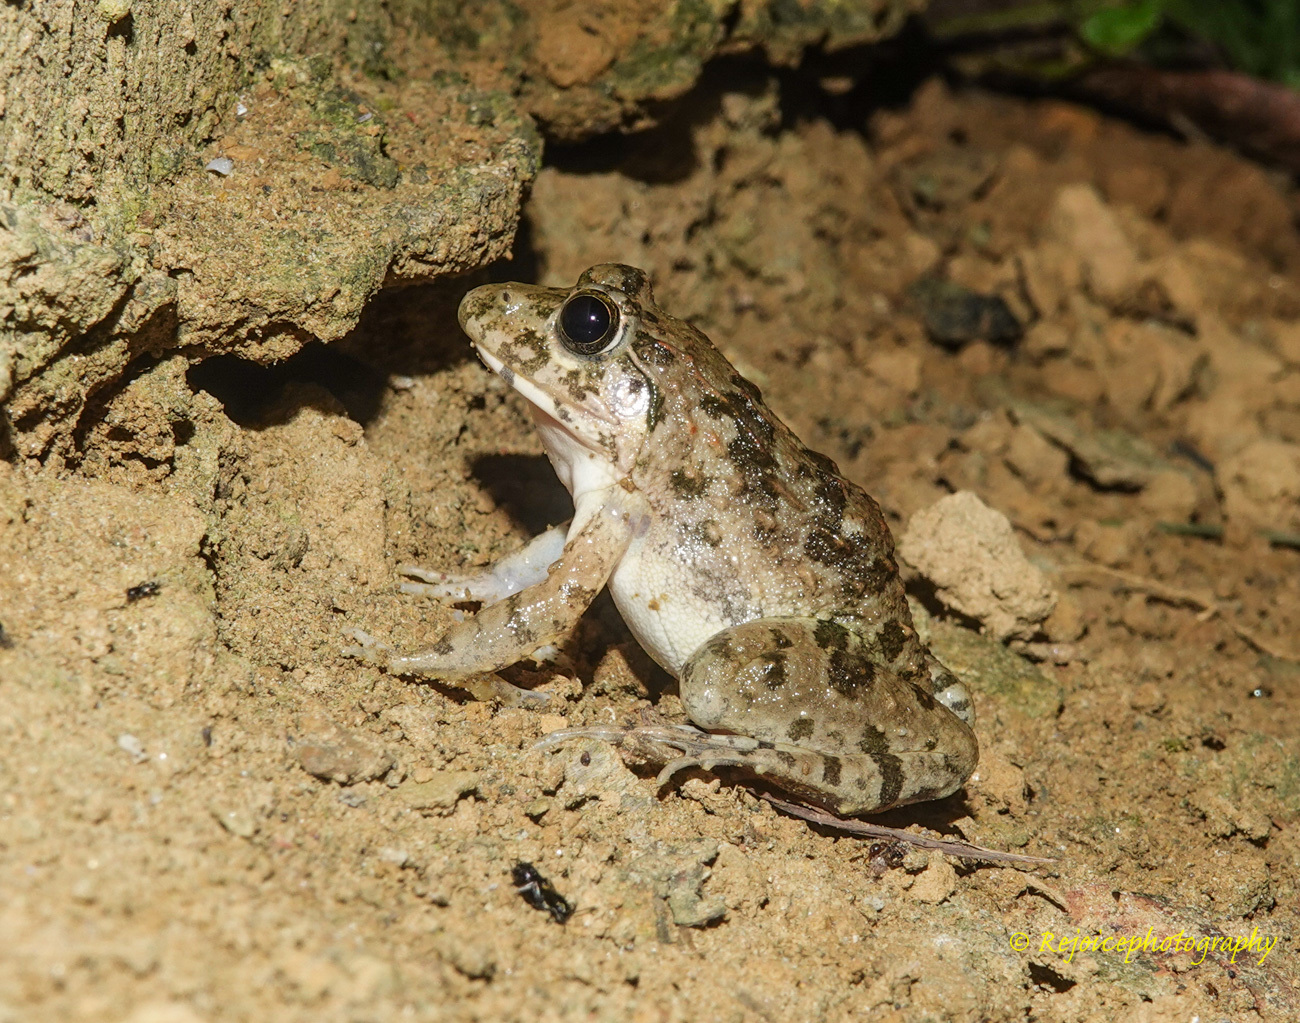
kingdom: Animalia
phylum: Chordata
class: Amphibia
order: Anura
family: Dicroglossidae
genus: Fejervarya
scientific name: Fejervarya limnocharis
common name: Asian grass frog/common pond frog/field frog/grass frog/indian rice frog
